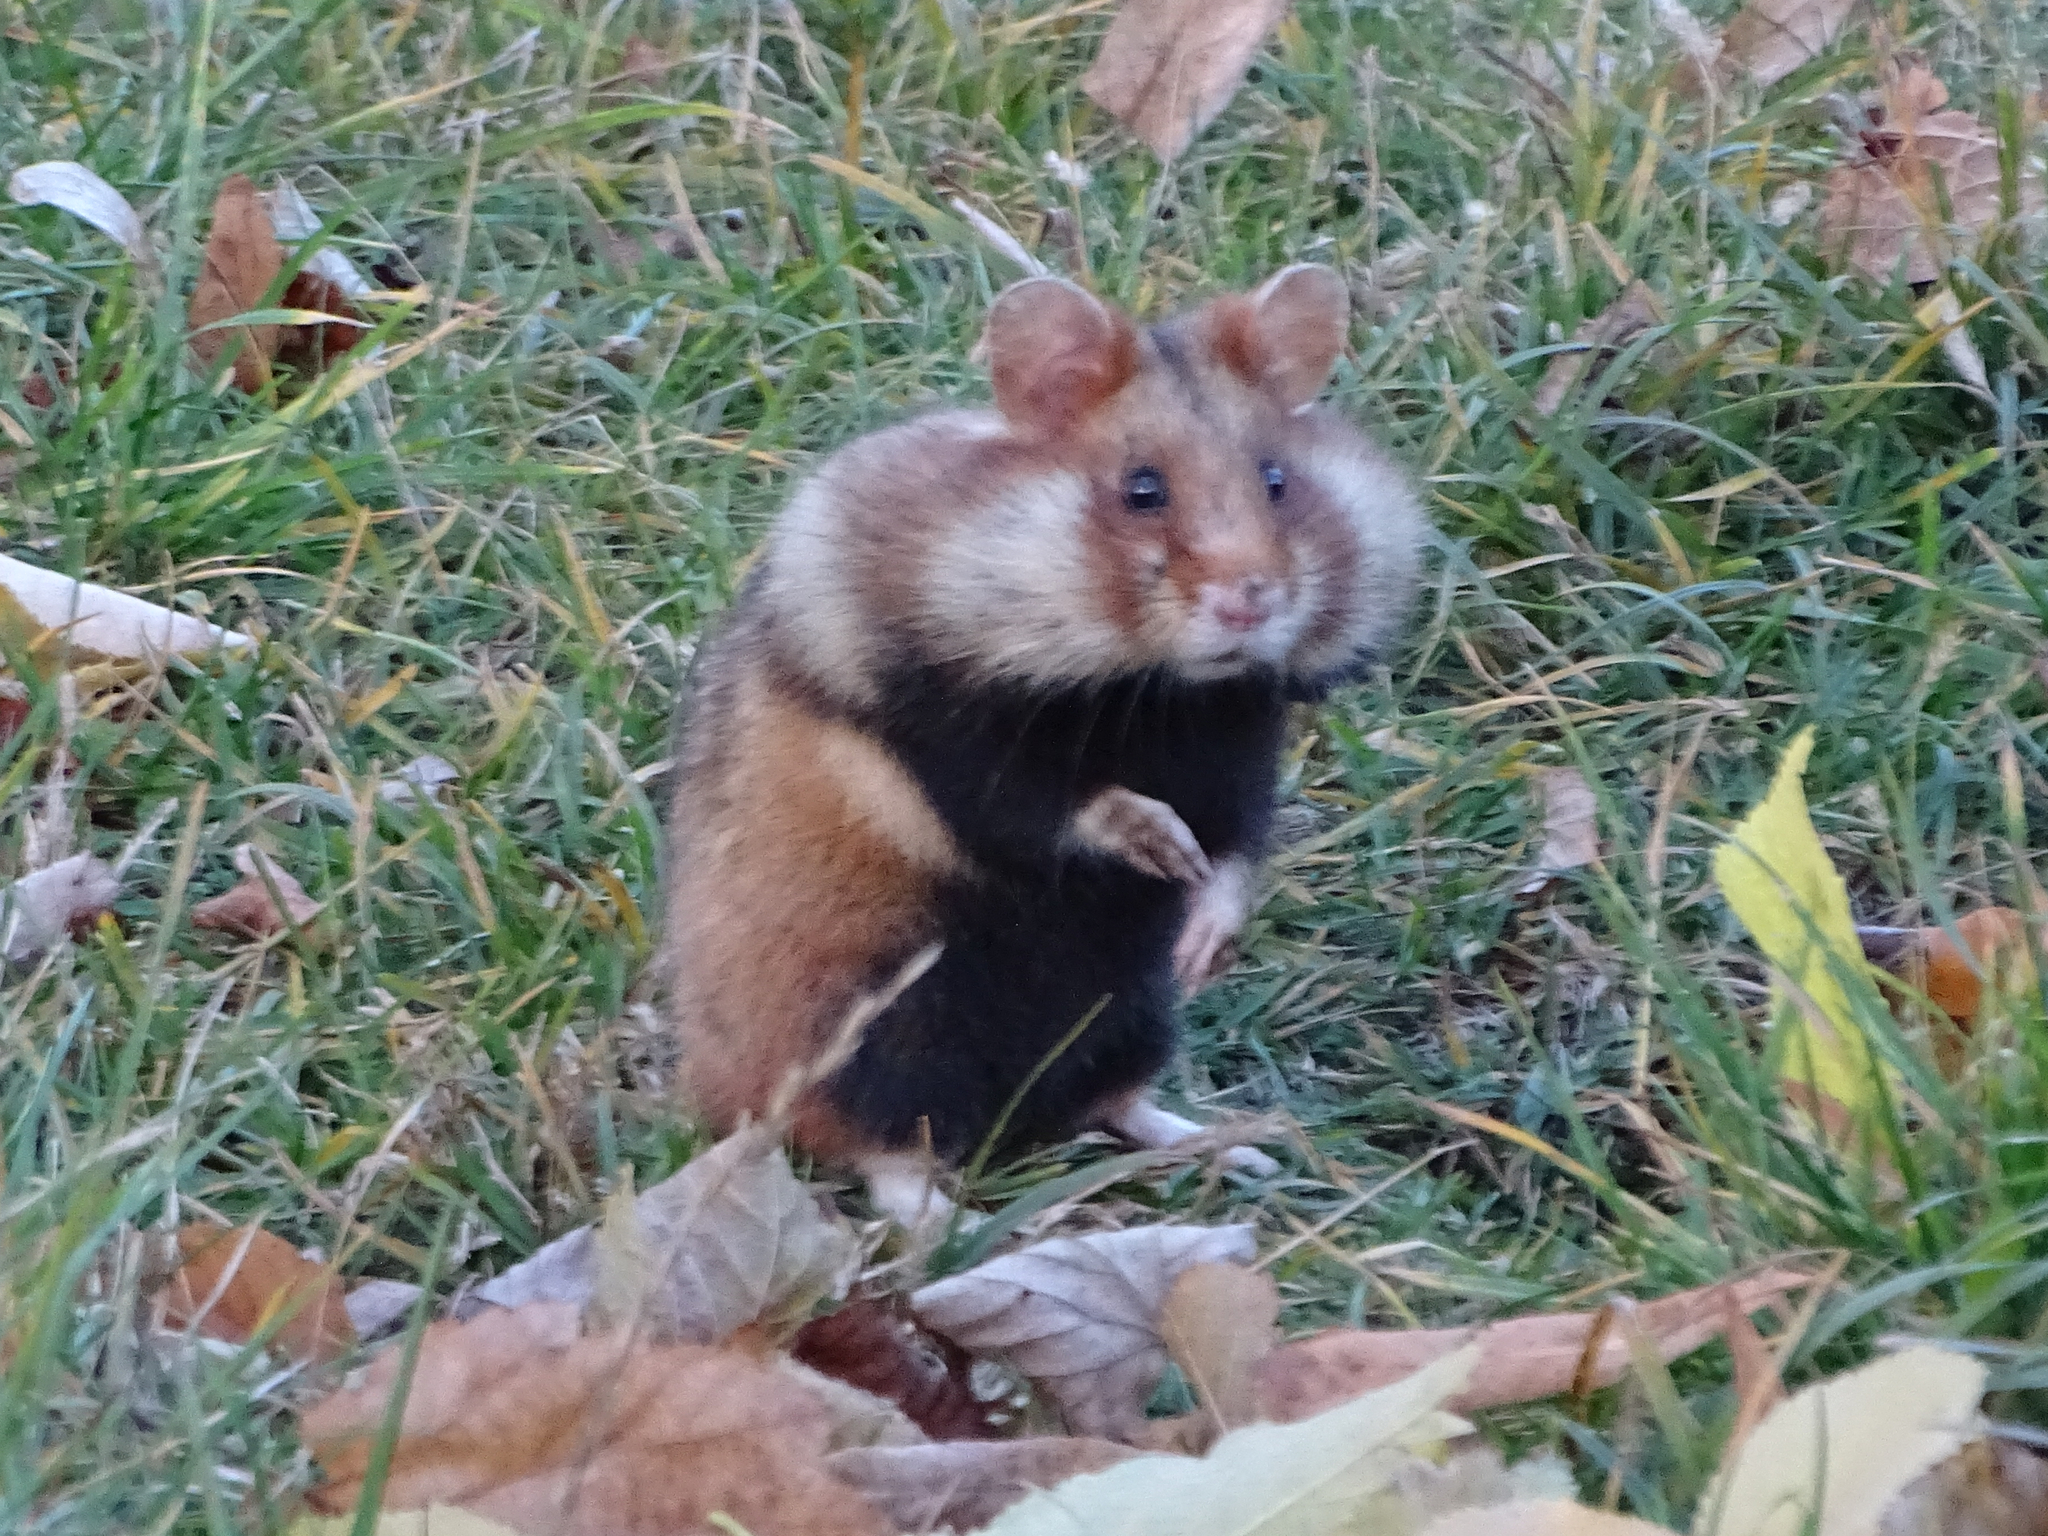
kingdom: Animalia
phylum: Chordata
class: Mammalia
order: Rodentia
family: Cricetidae
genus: Cricetus
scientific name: Cricetus cricetus
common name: Common hamster
